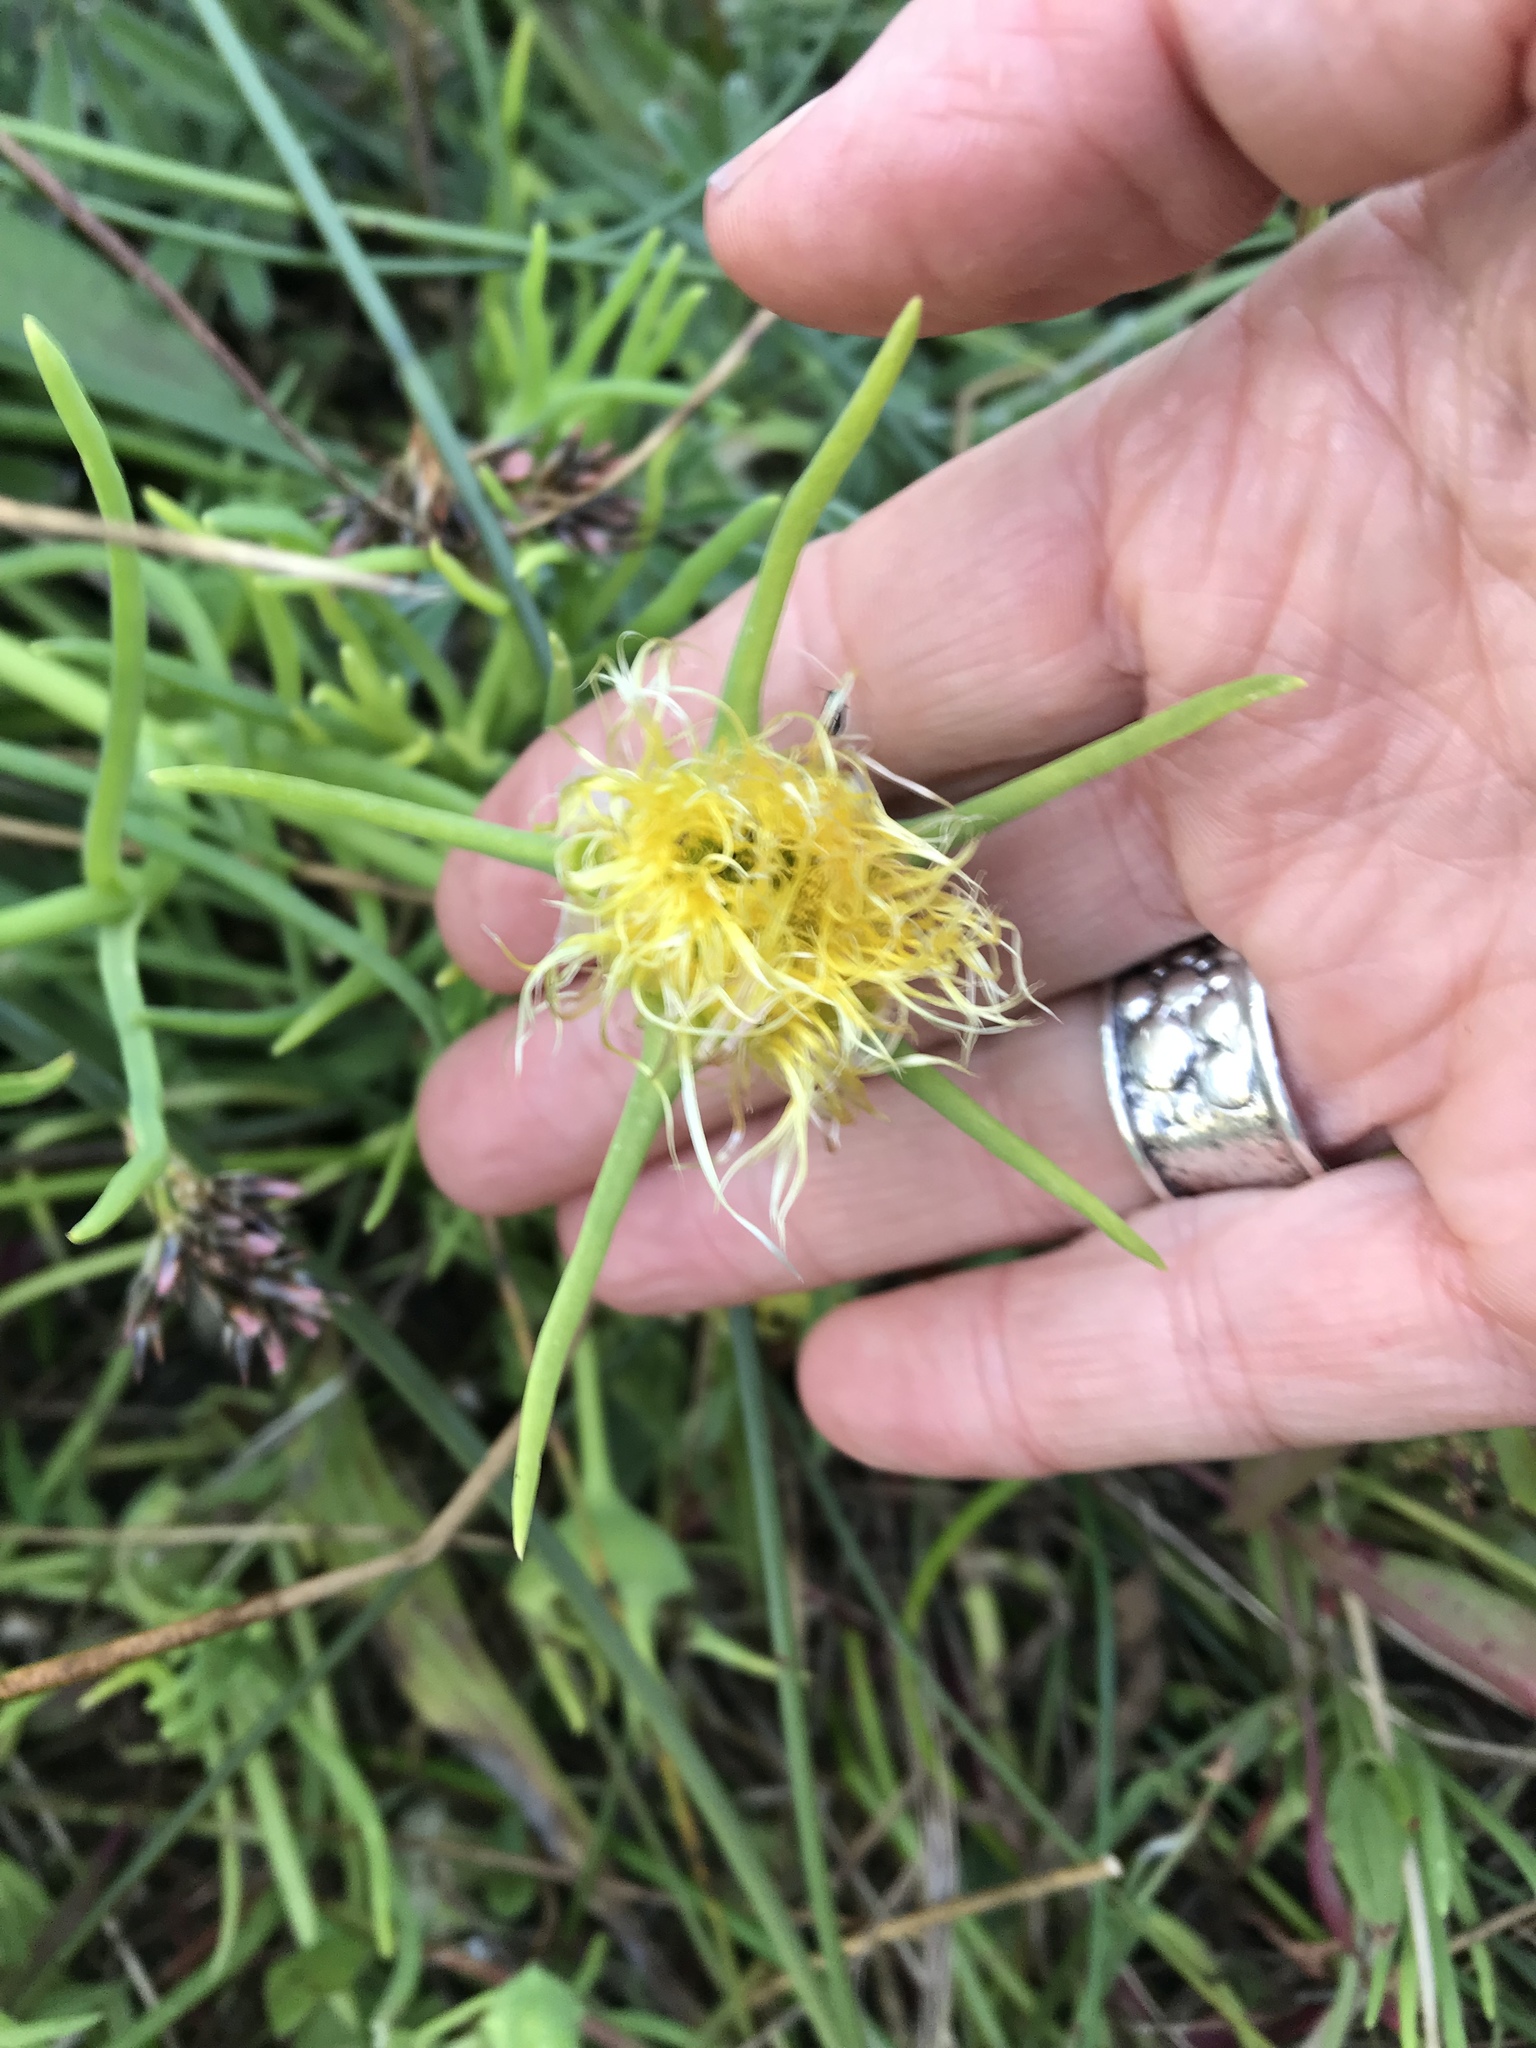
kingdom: Plantae
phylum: Tracheophyta
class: Magnoliopsida
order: Caryophyllales
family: Aizoaceae
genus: Conicosia
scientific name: Conicosia pugioniformis
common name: Narrow-leaved iceplant
